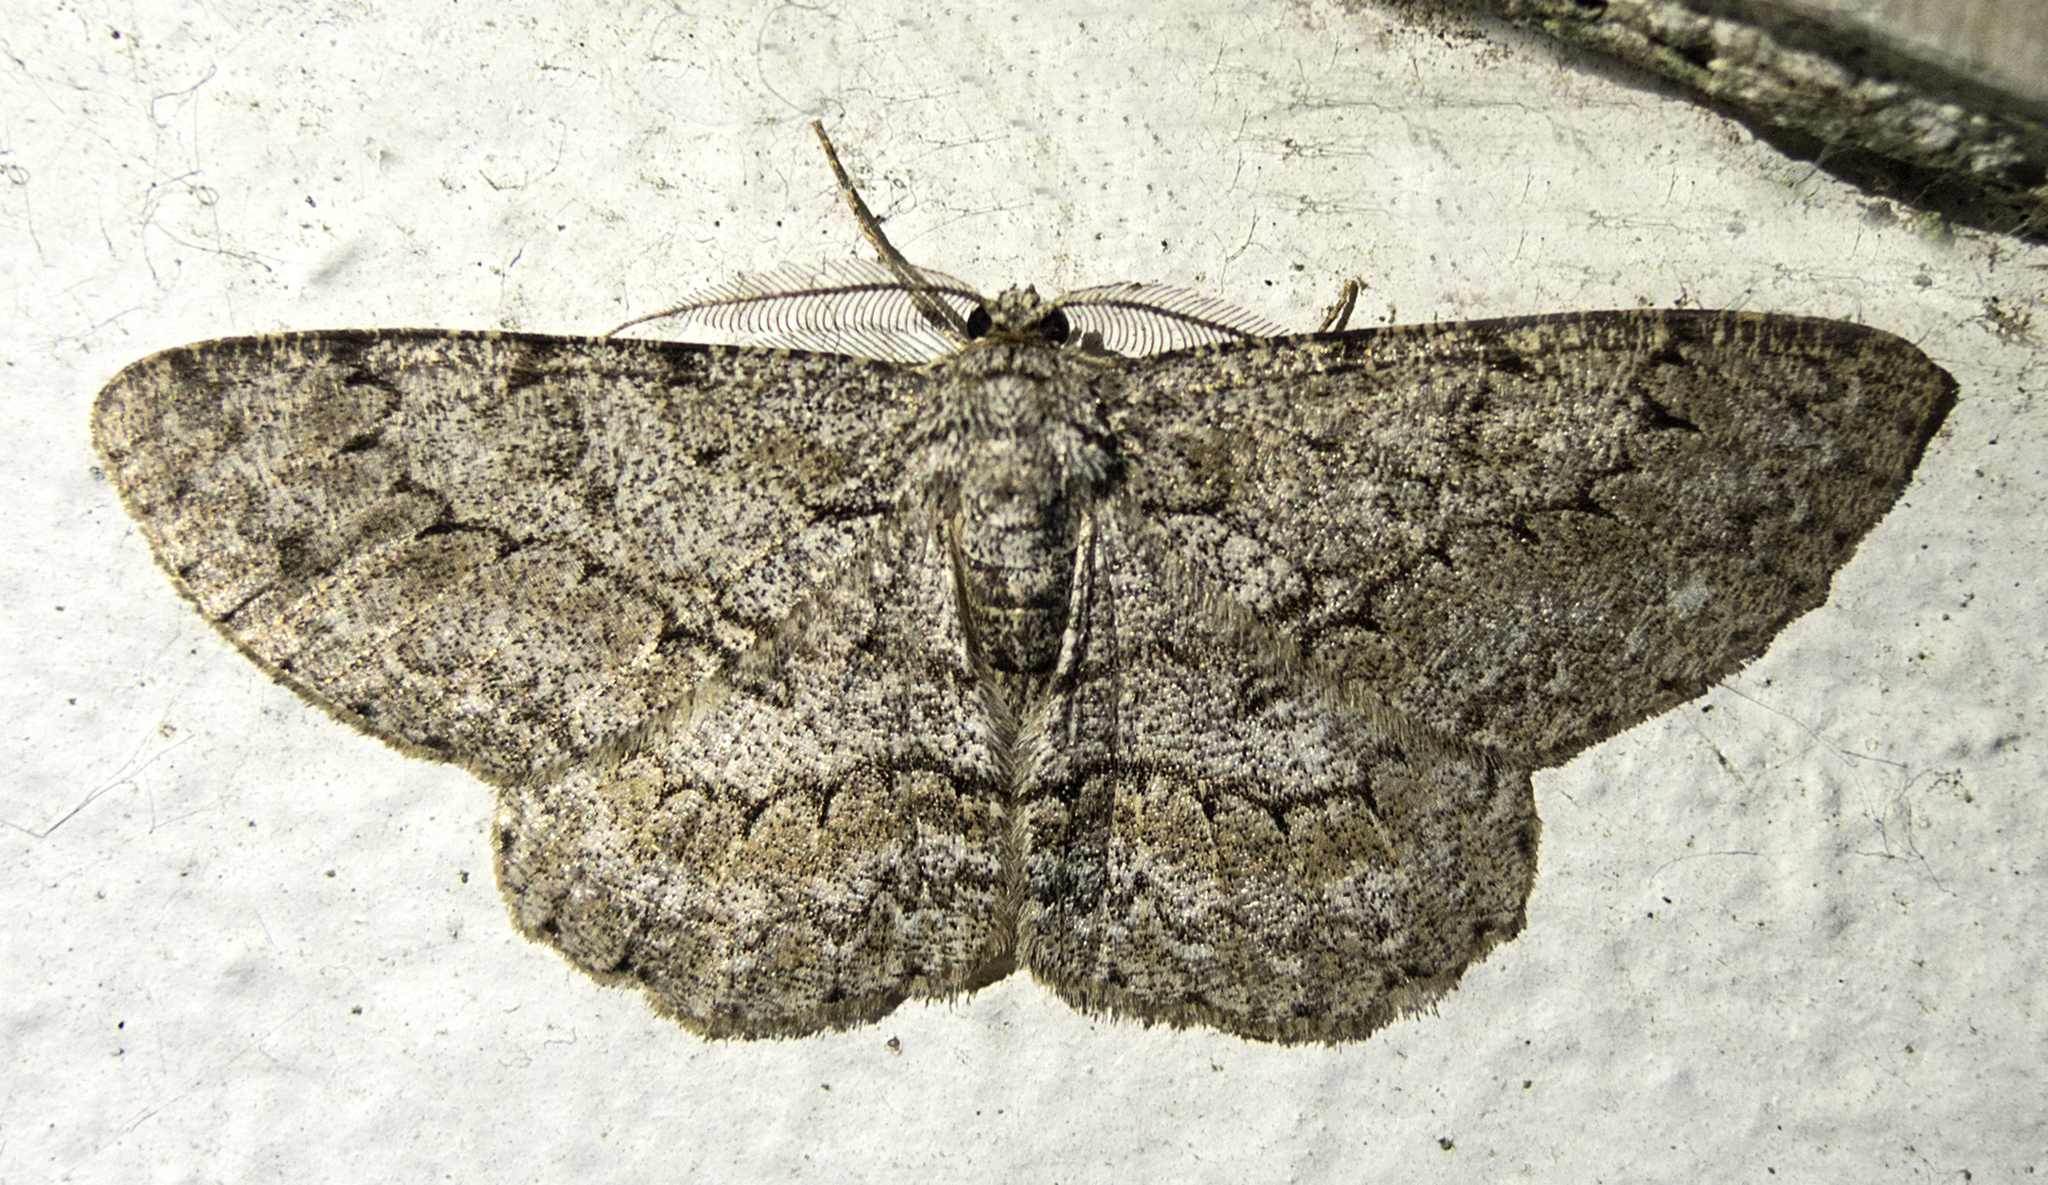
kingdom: Animalia
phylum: Arthropoda
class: Insecta
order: Lepidoptera
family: Geometridae
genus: Hypomecis
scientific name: Hypomecis punctinalis
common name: Pale oak beauty
